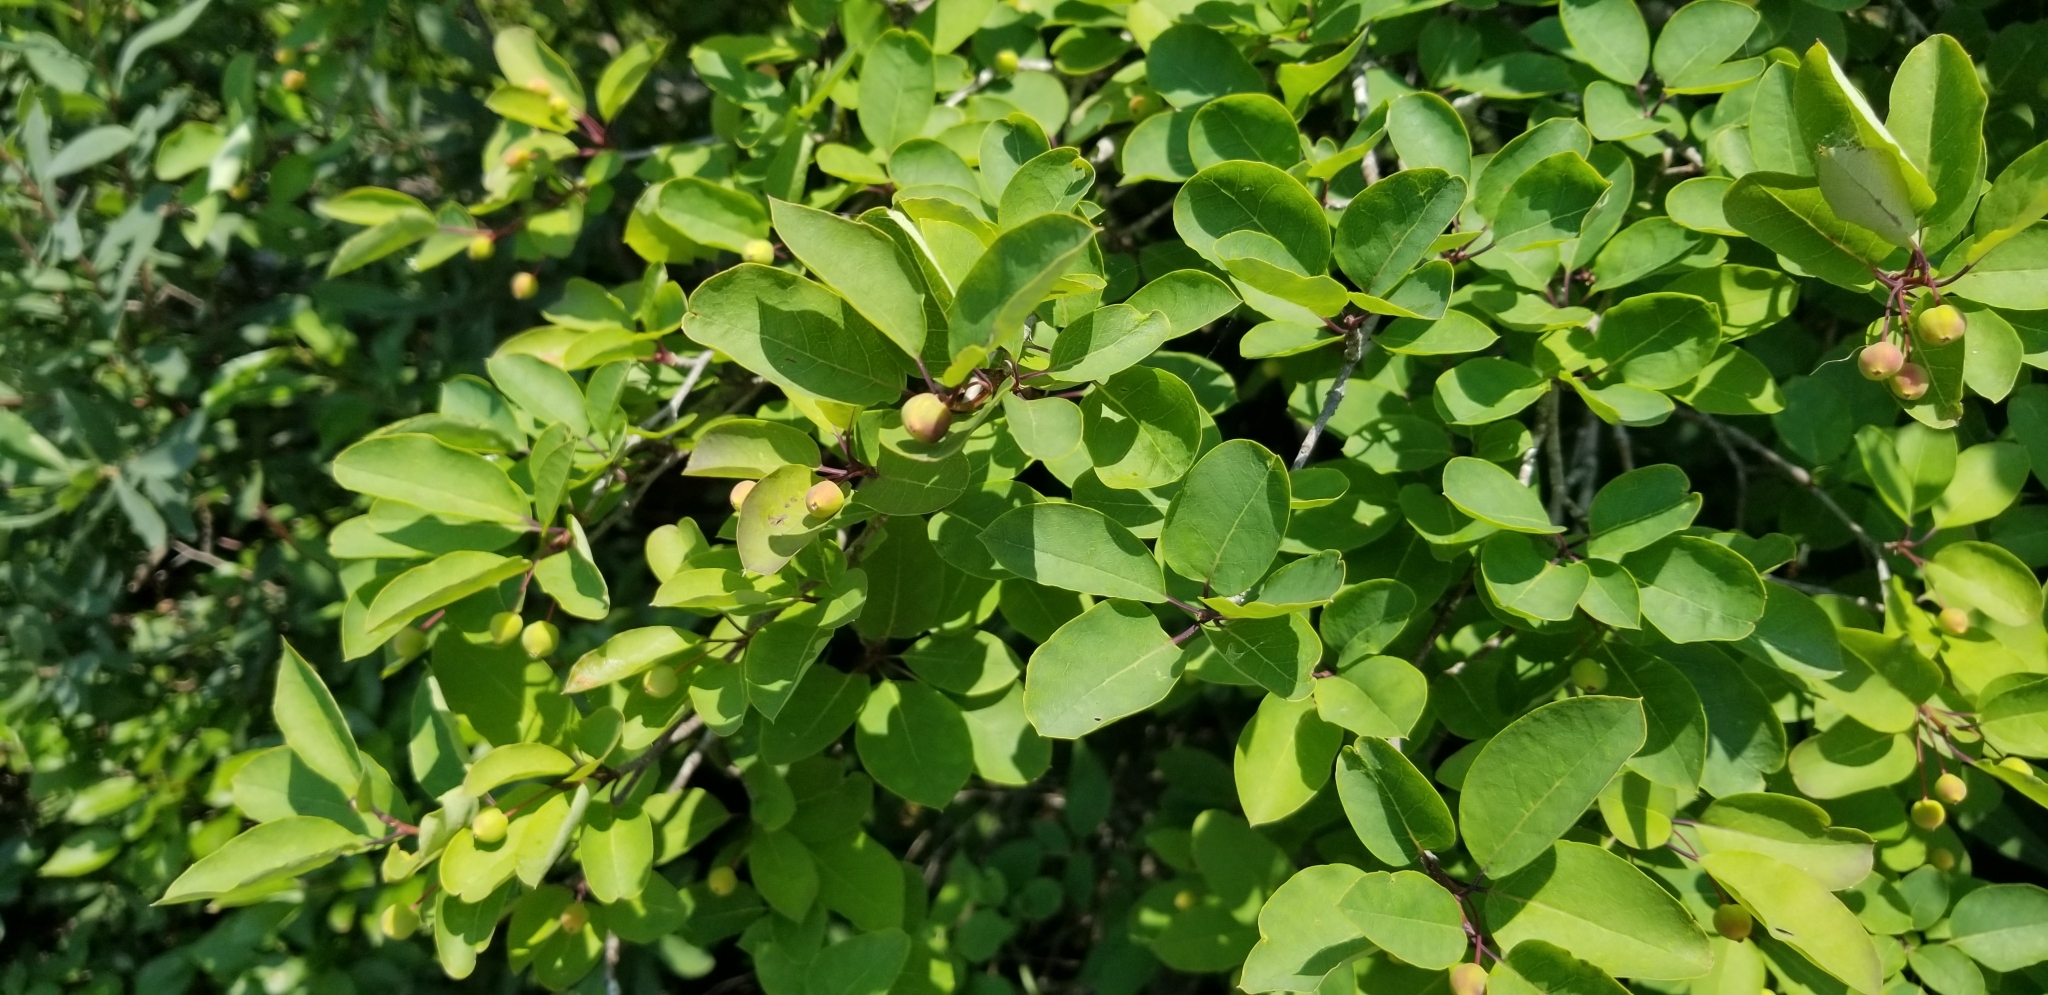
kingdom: Plantae
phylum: Tracheophyta
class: Magnoliopsida
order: Aquifoliales
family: Aquifoliaceae
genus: Ilex
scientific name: Ilex mucronata
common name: Catberry
